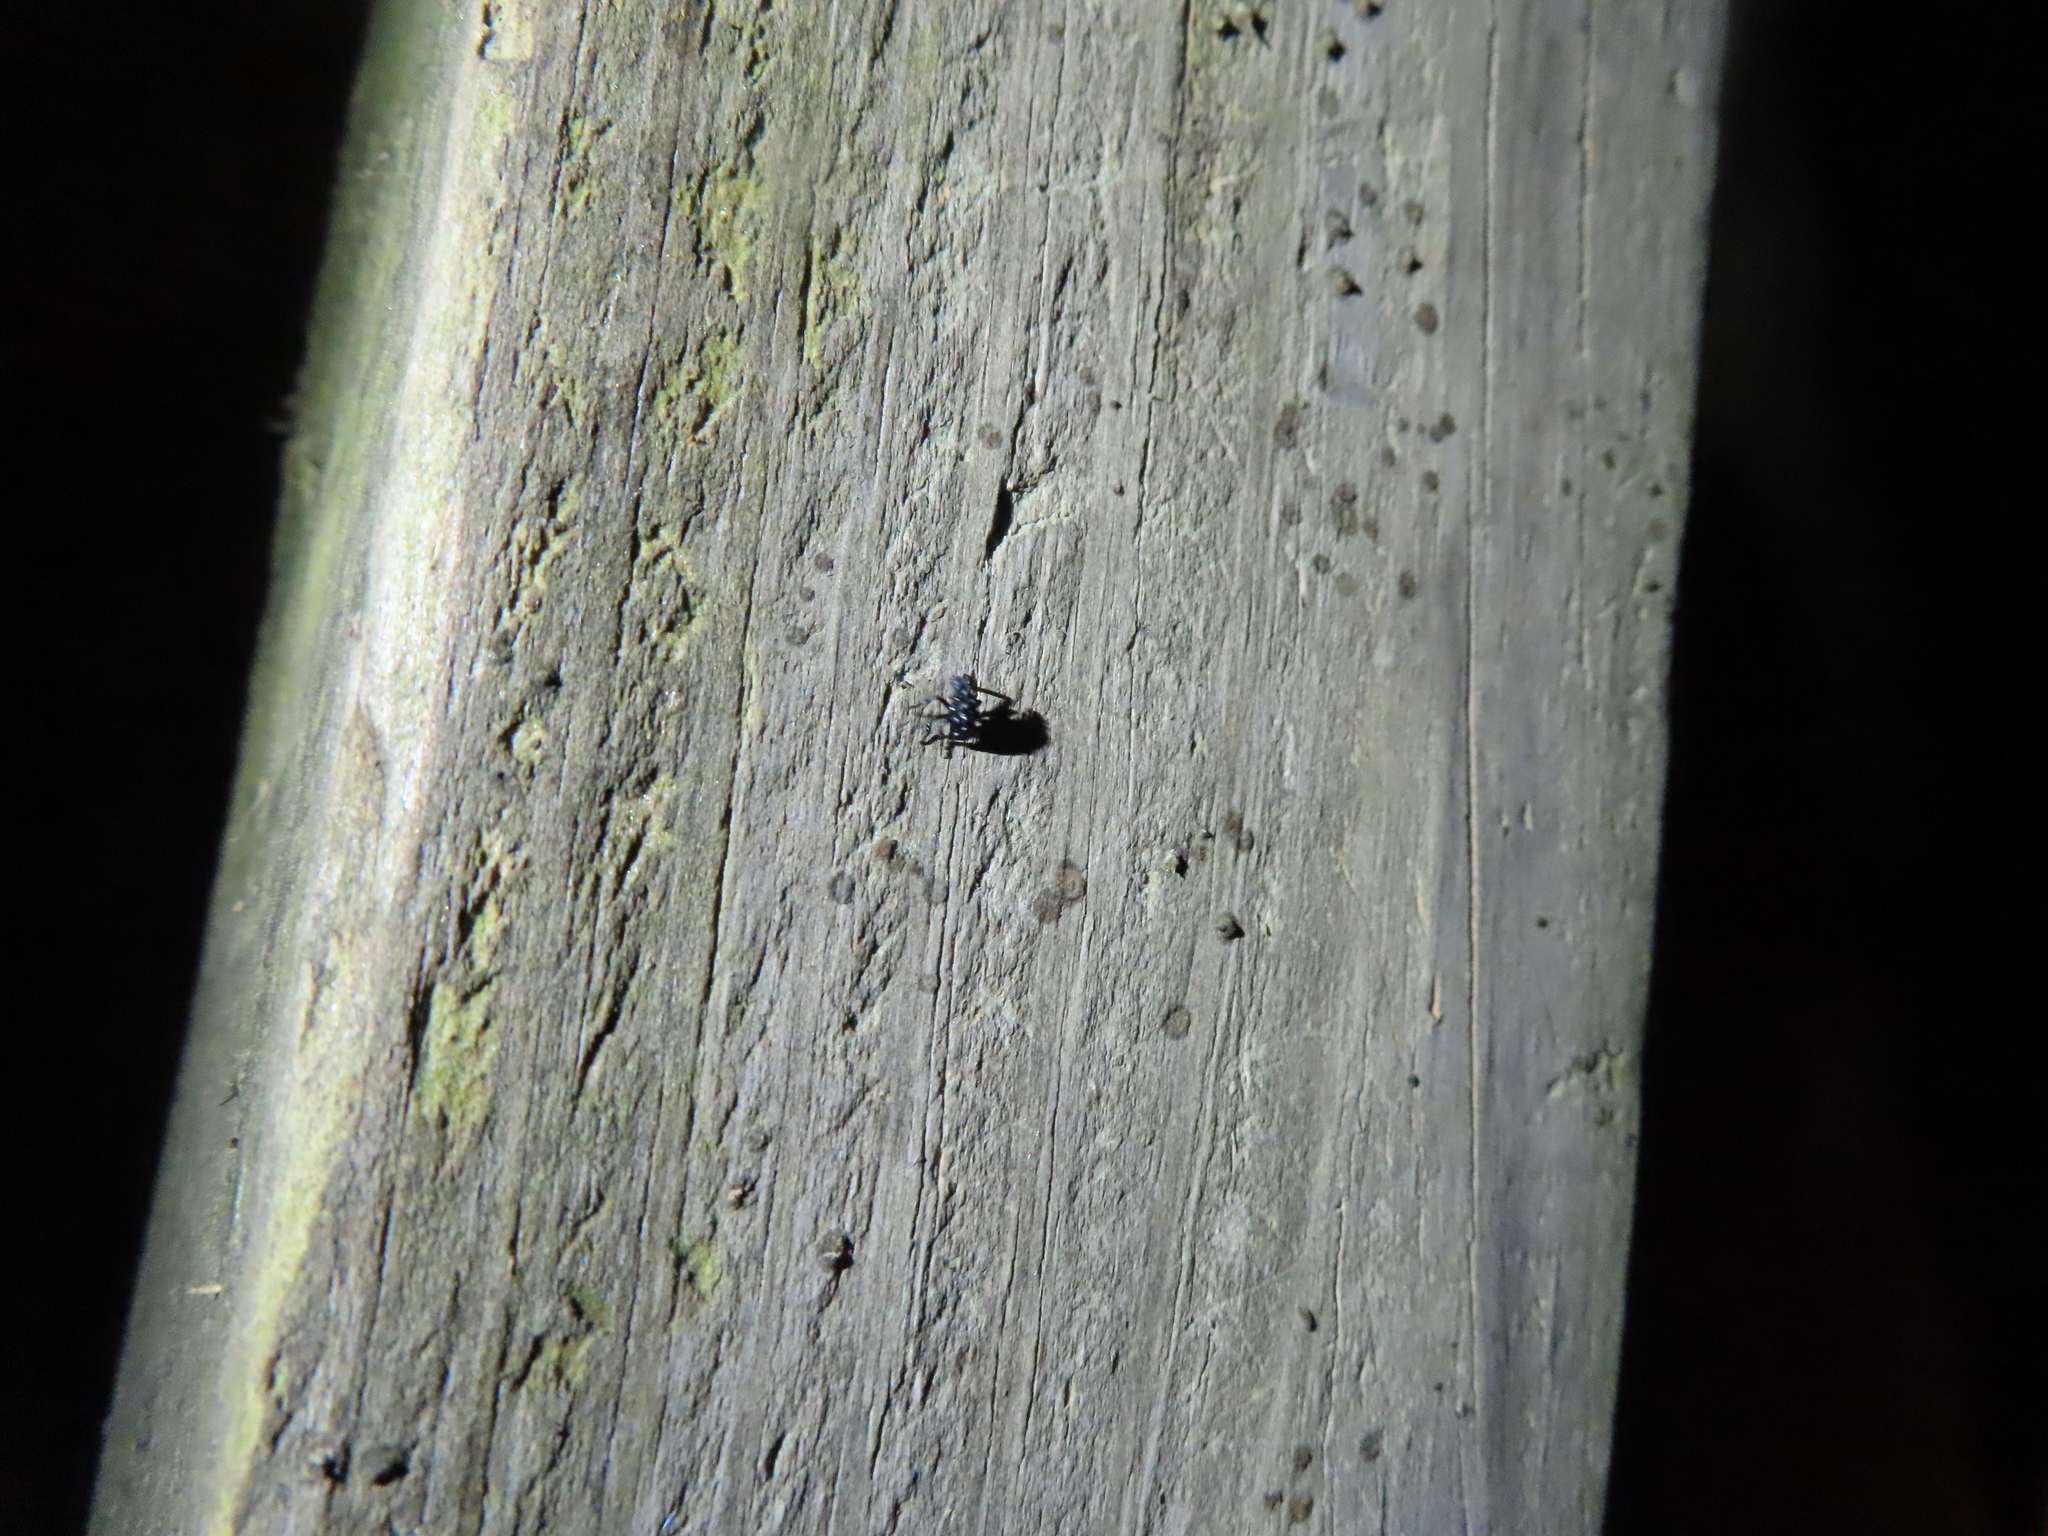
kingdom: Animalia
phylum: Arthropoda
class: Insecta
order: Hemiptera
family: Fulgoridae
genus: Lycorma
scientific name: Lycorma delicatula
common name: Spotted lanternfly
